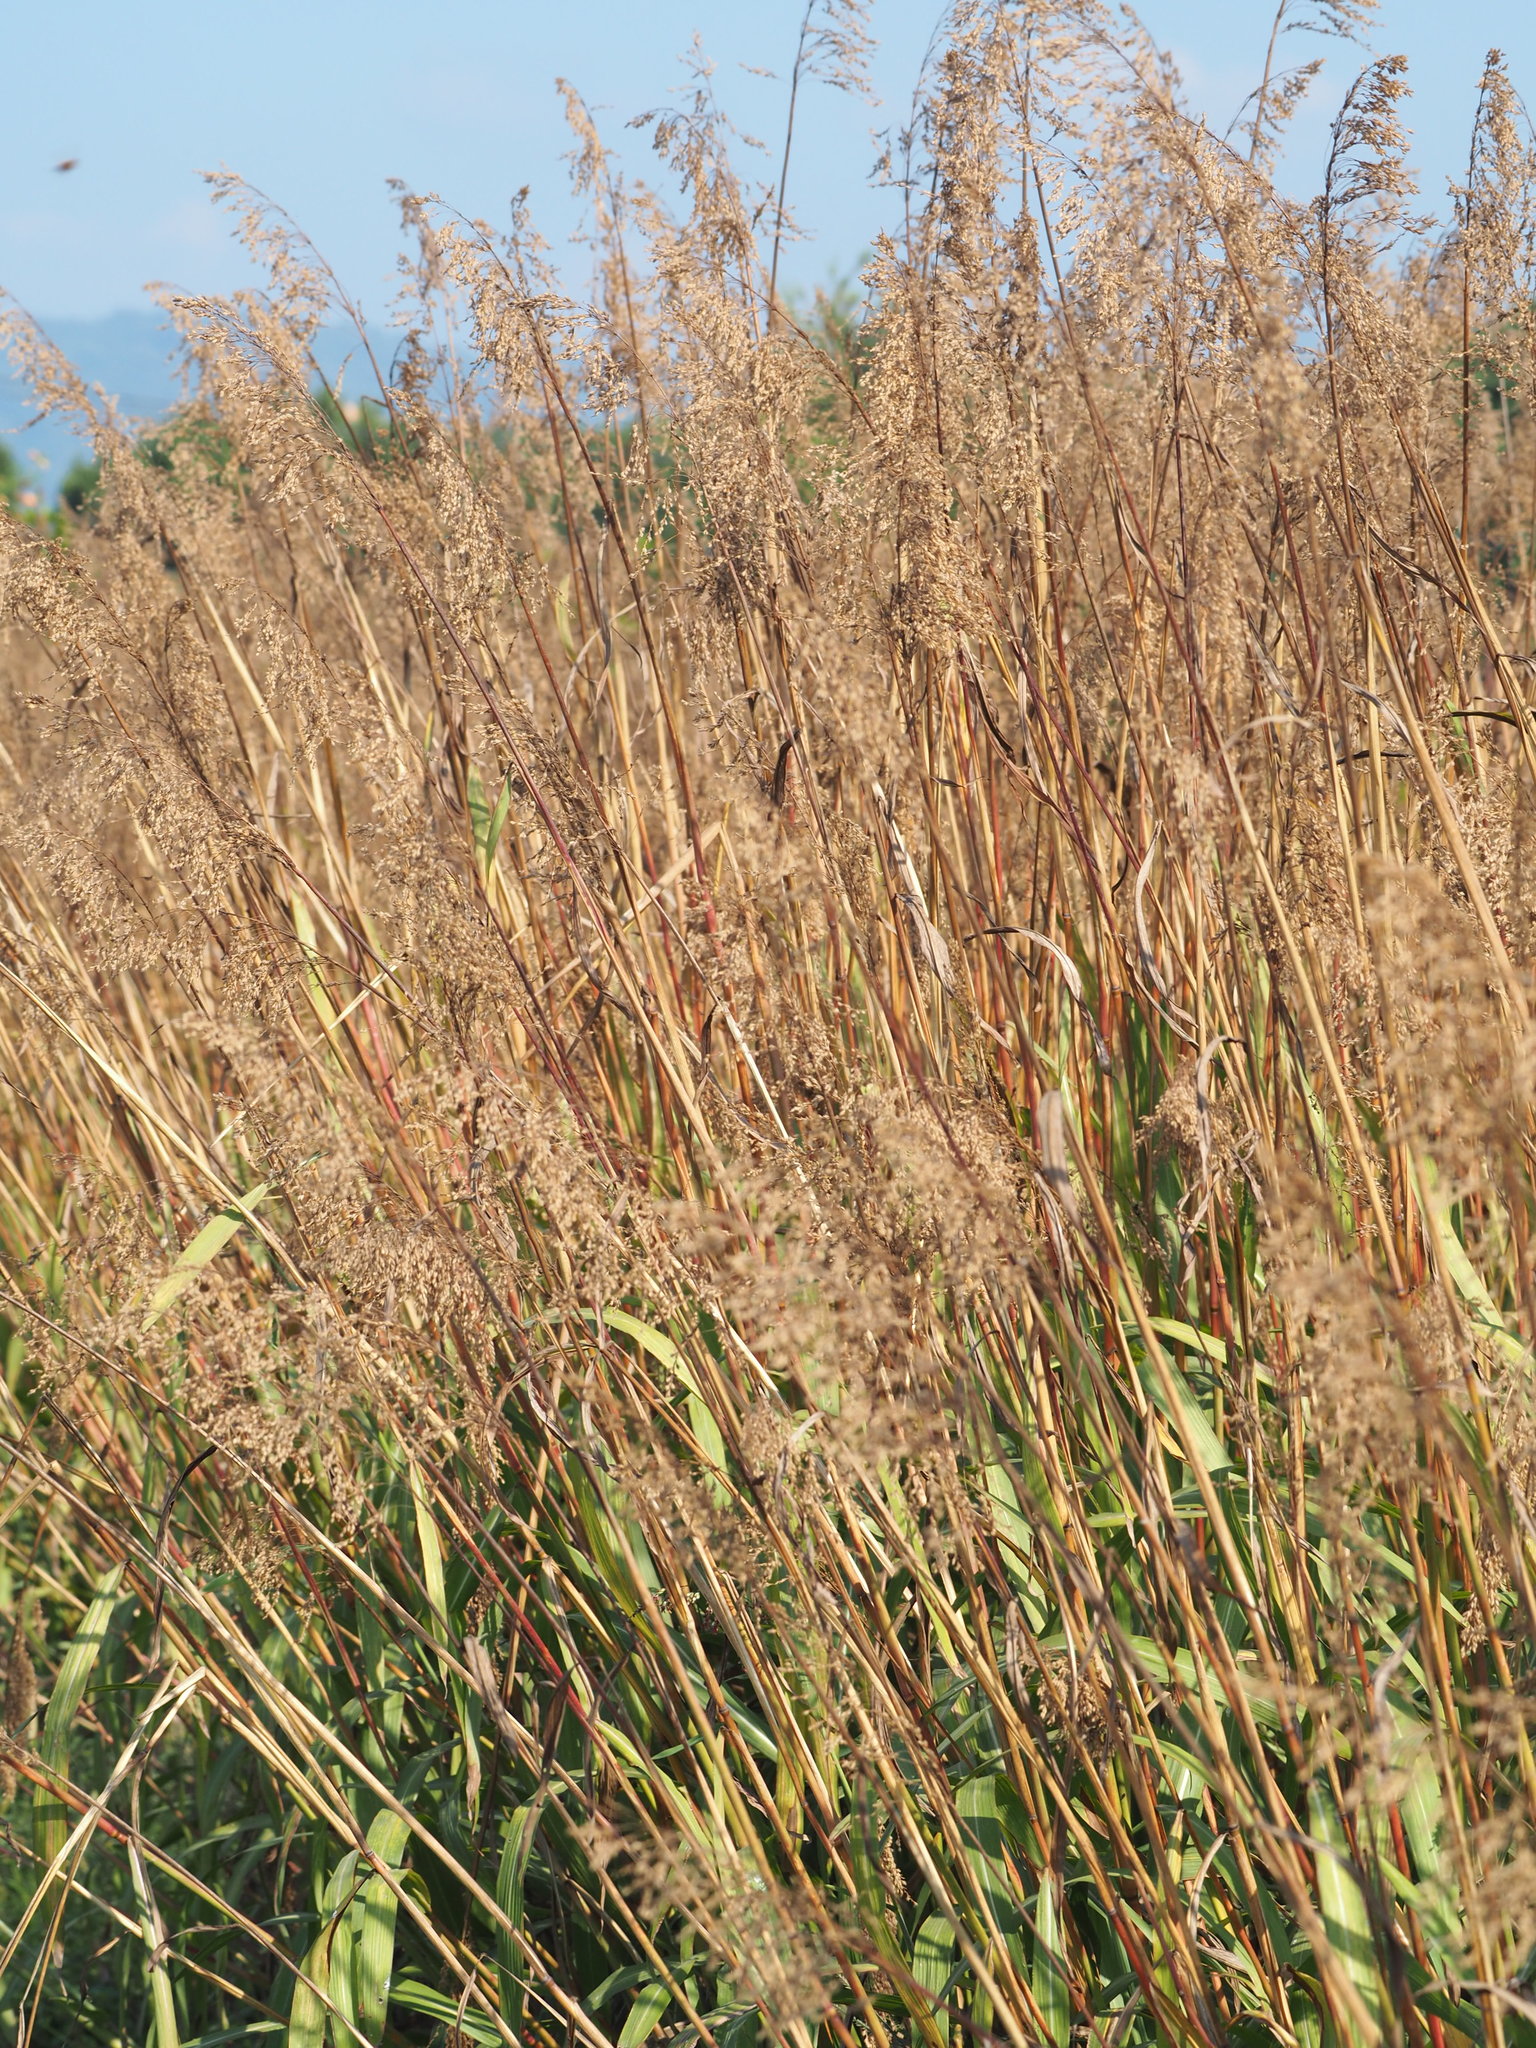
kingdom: Plantae
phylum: Tracheophyta
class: Liliopsida
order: Poales
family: Poaceae
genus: Spodiopogon
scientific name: Spodiopogon formosanus
